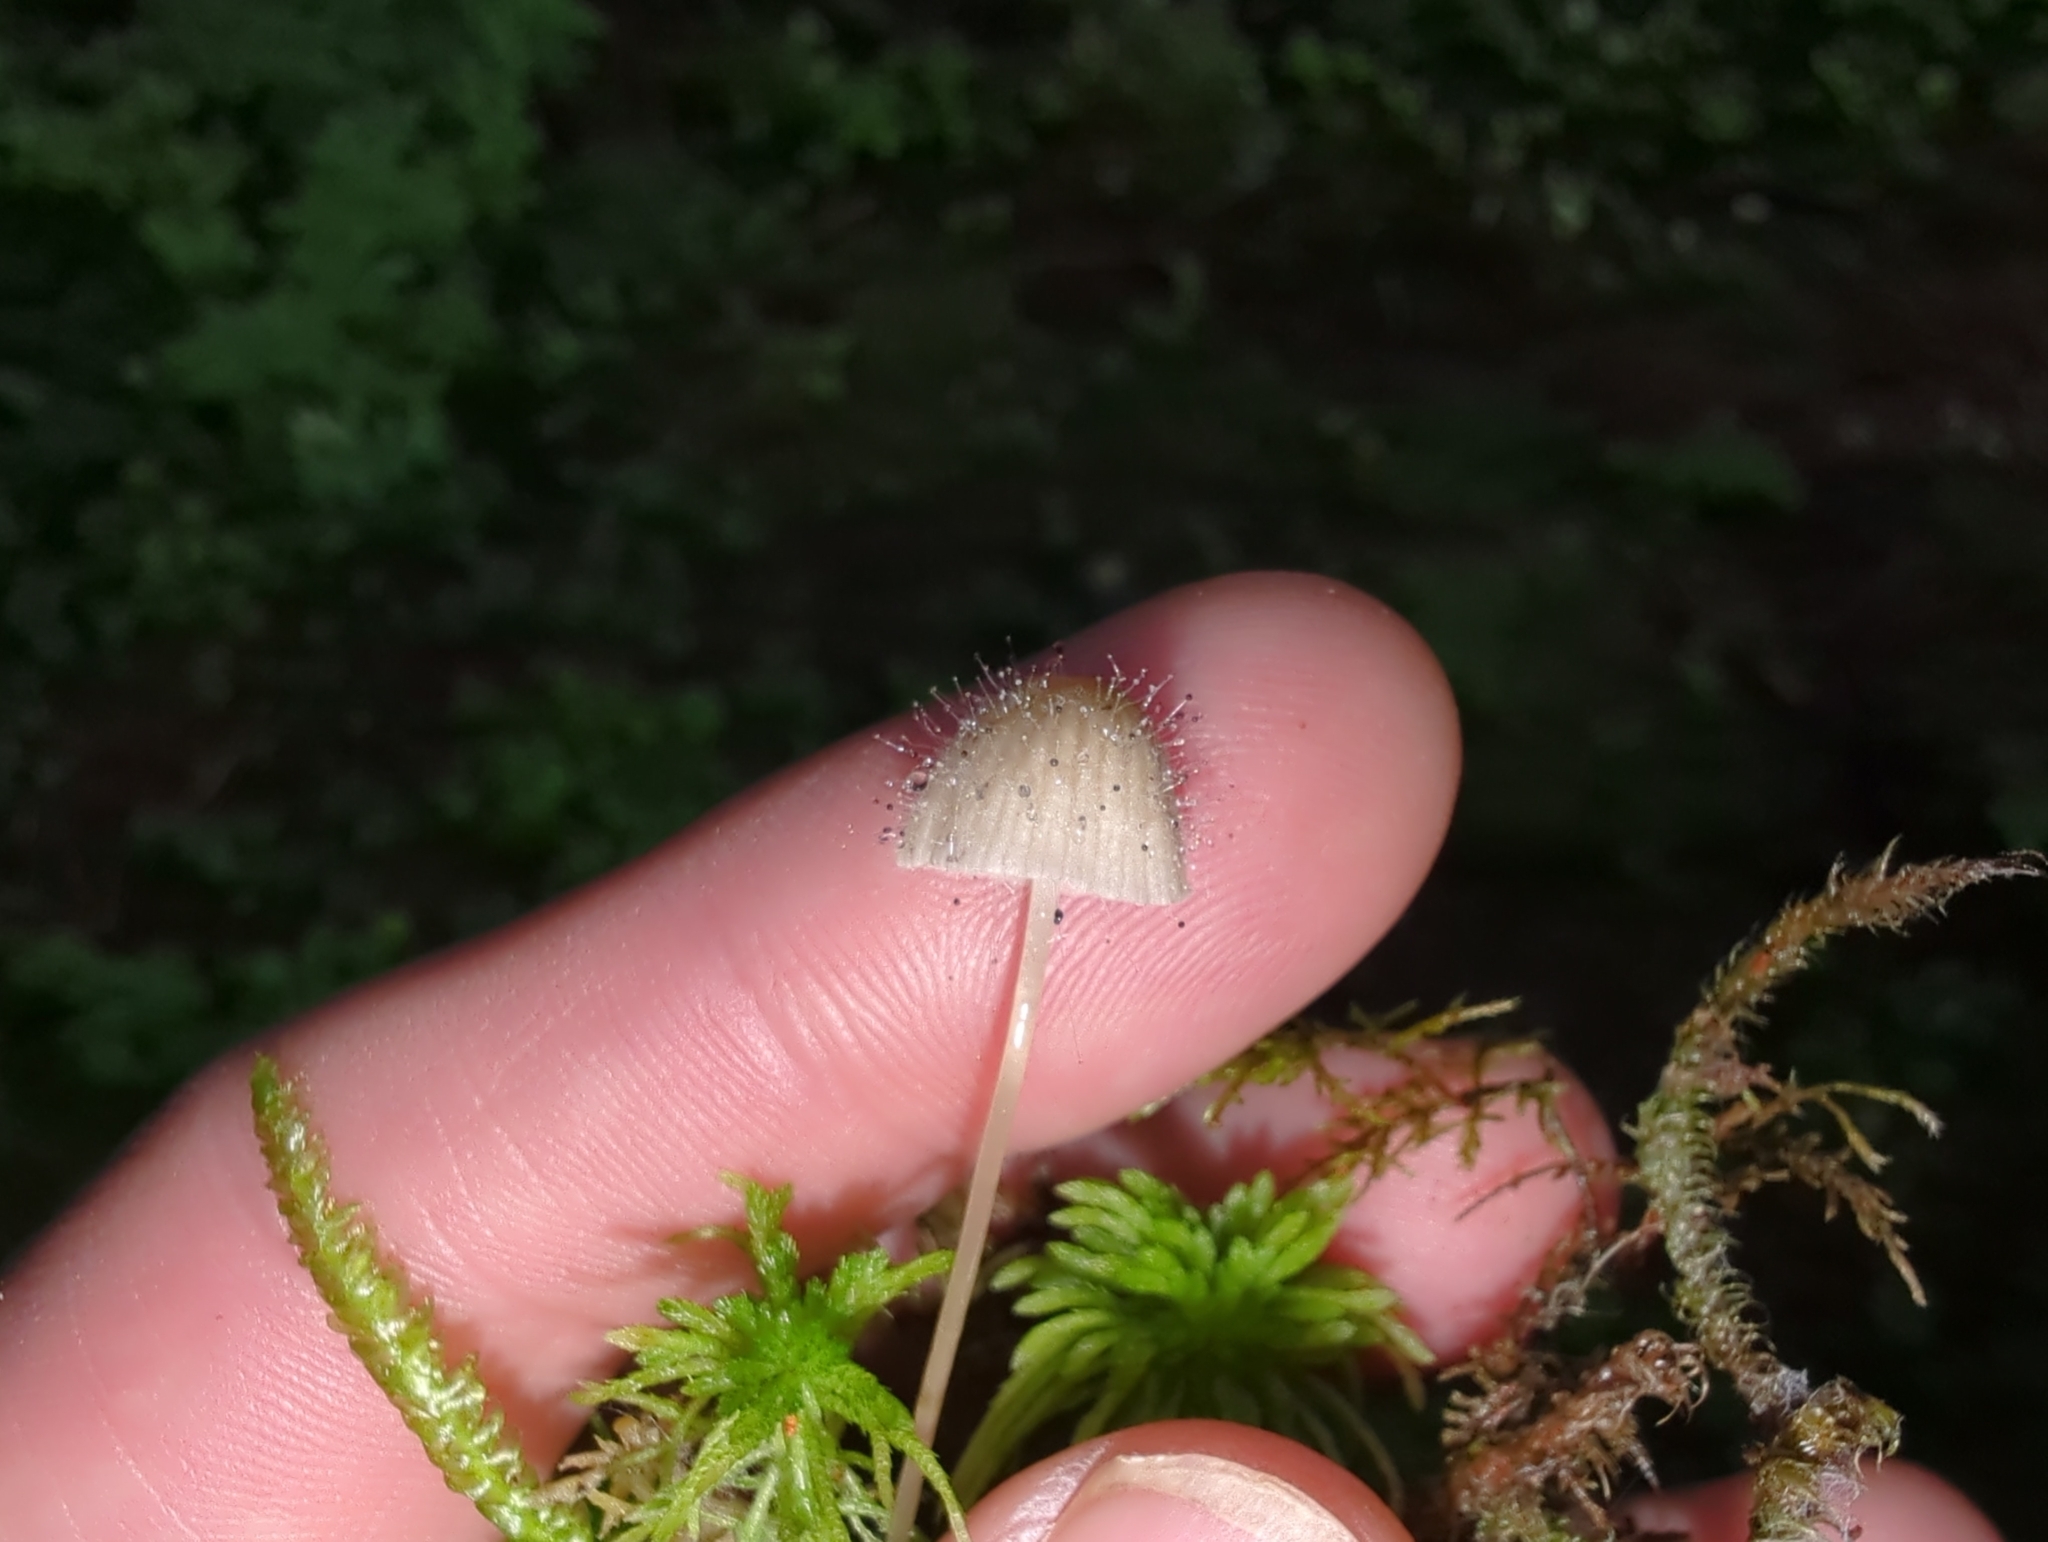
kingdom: Fungi
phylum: Mucoromycota
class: Mucoromycetes
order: Mucorales
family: Phycomycetaceae
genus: Spinellus
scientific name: Spinellus fusiger
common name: Bonnet mould
